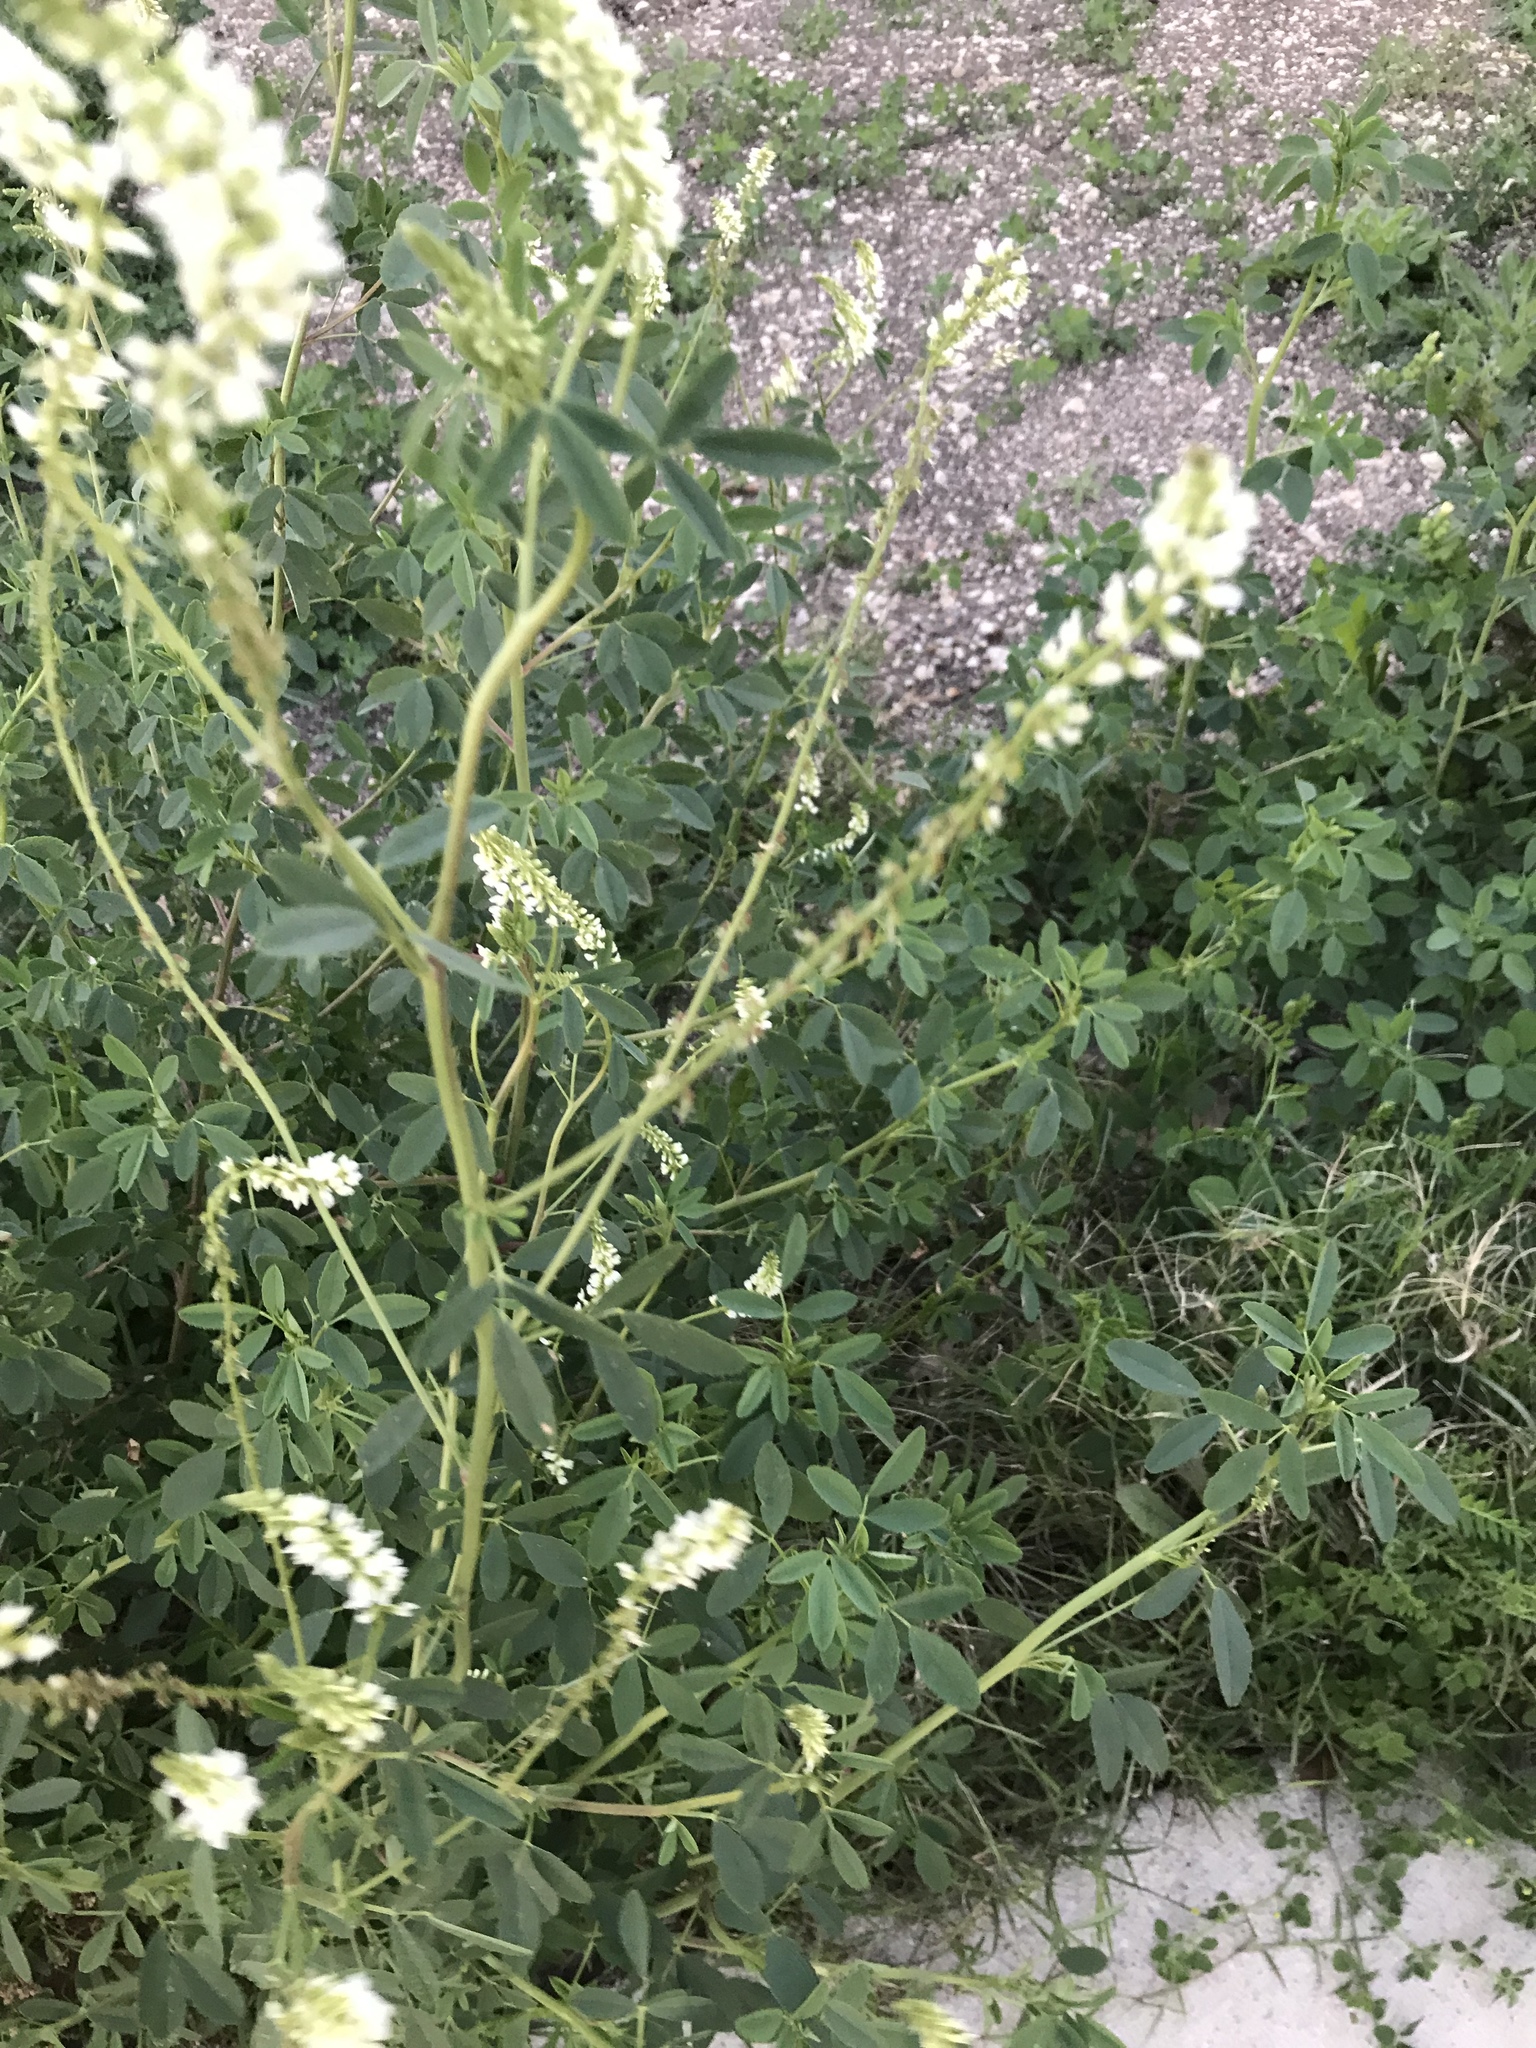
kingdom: Plantae
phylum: Tracheophyta
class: Magnoliopsida
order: Fabales
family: Fabaceae
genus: Melilotus
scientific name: Melilotus albus
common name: White melilot
